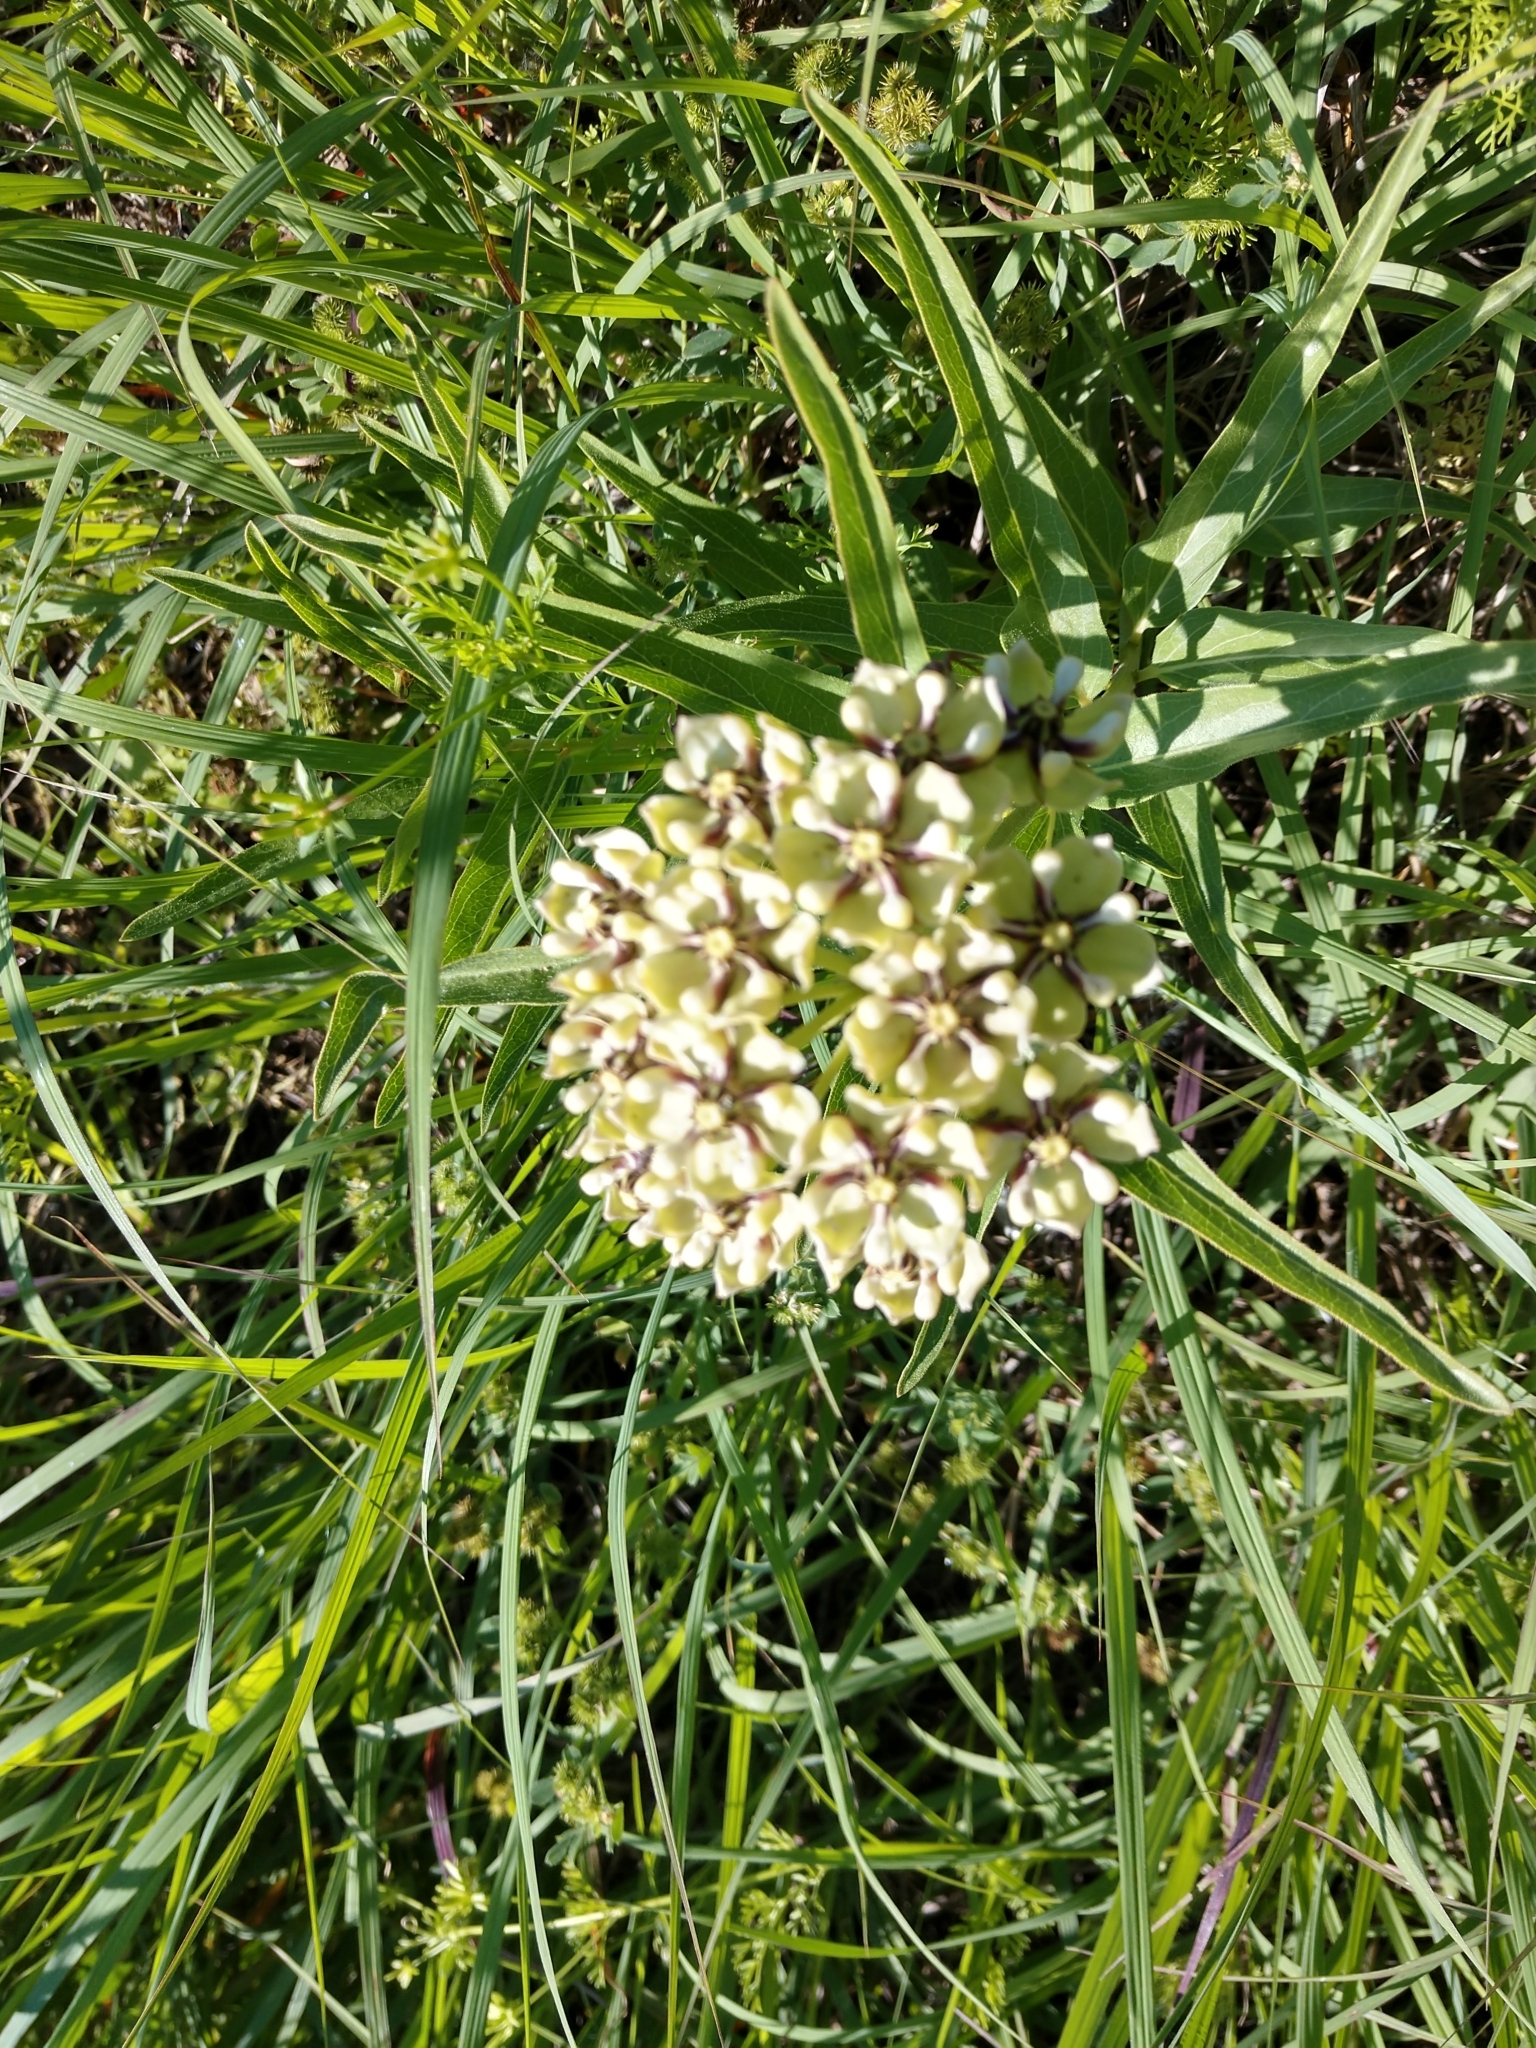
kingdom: Plantae
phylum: Tracheophyta
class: Magnoliopsida
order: Gentianales
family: Apocynaceae
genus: Asclepias
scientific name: Asclepias asperula
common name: Antelope horns
